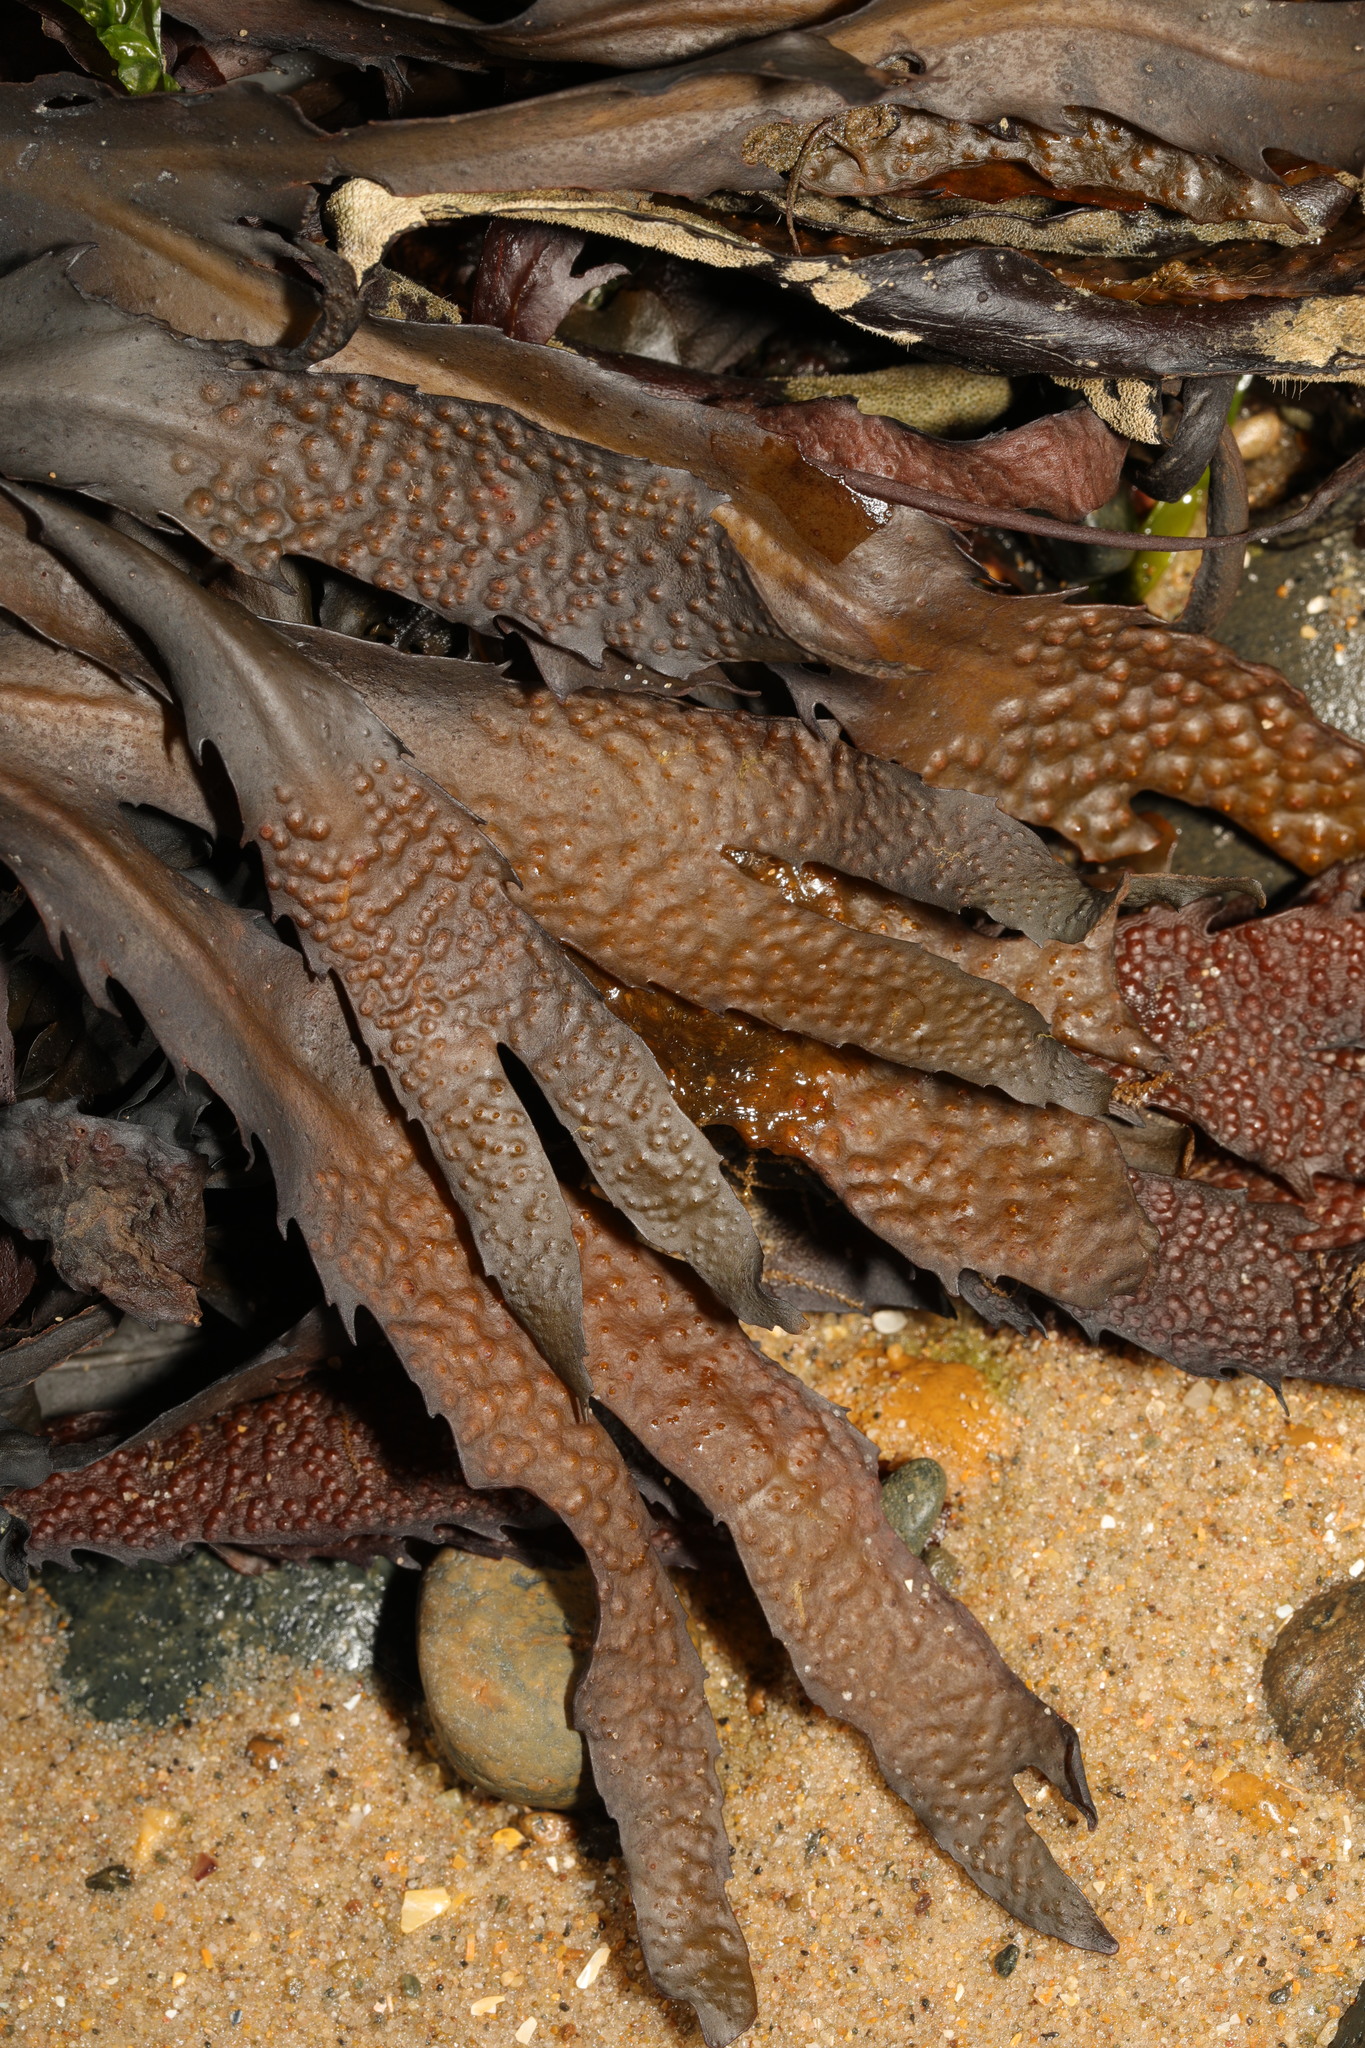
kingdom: Chromista
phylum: Ochrophyta
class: Phaeophyceae
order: Fucales
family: Fucaceae
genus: Fucus
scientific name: Fucus serratus
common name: Toothed wrack
